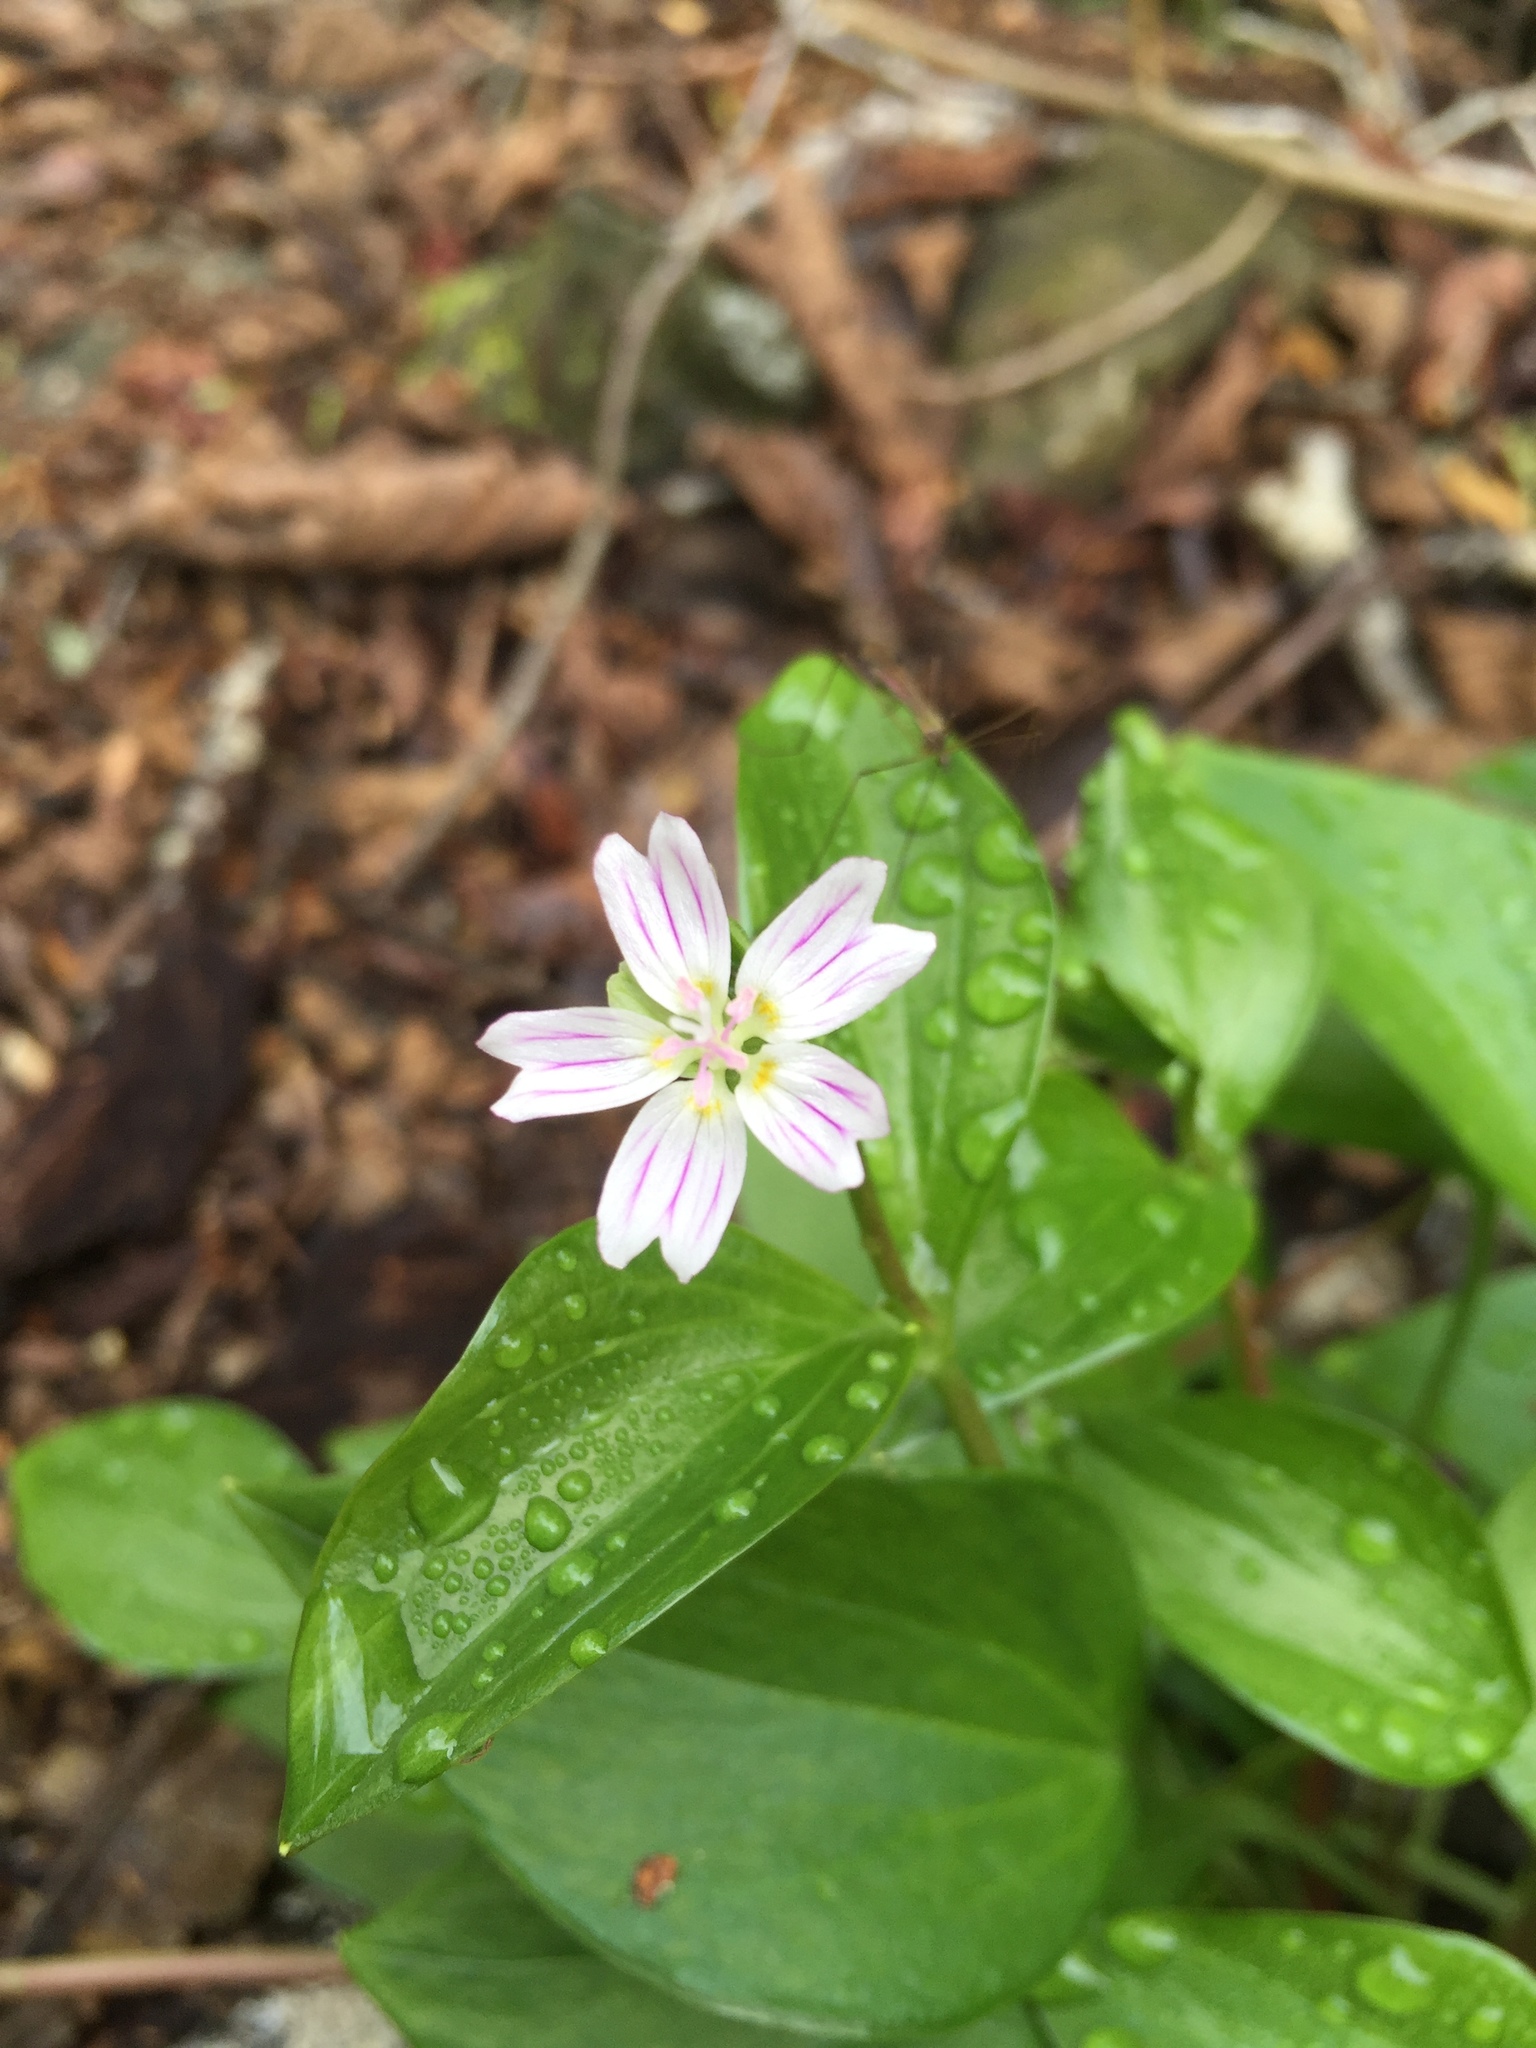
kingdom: Plantae
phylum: Tracheophyta
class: Magnoliopsida
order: Caryophyllales
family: Montiaceae
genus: Claytonia
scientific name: Claytonia sibirica
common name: Pink purslane
